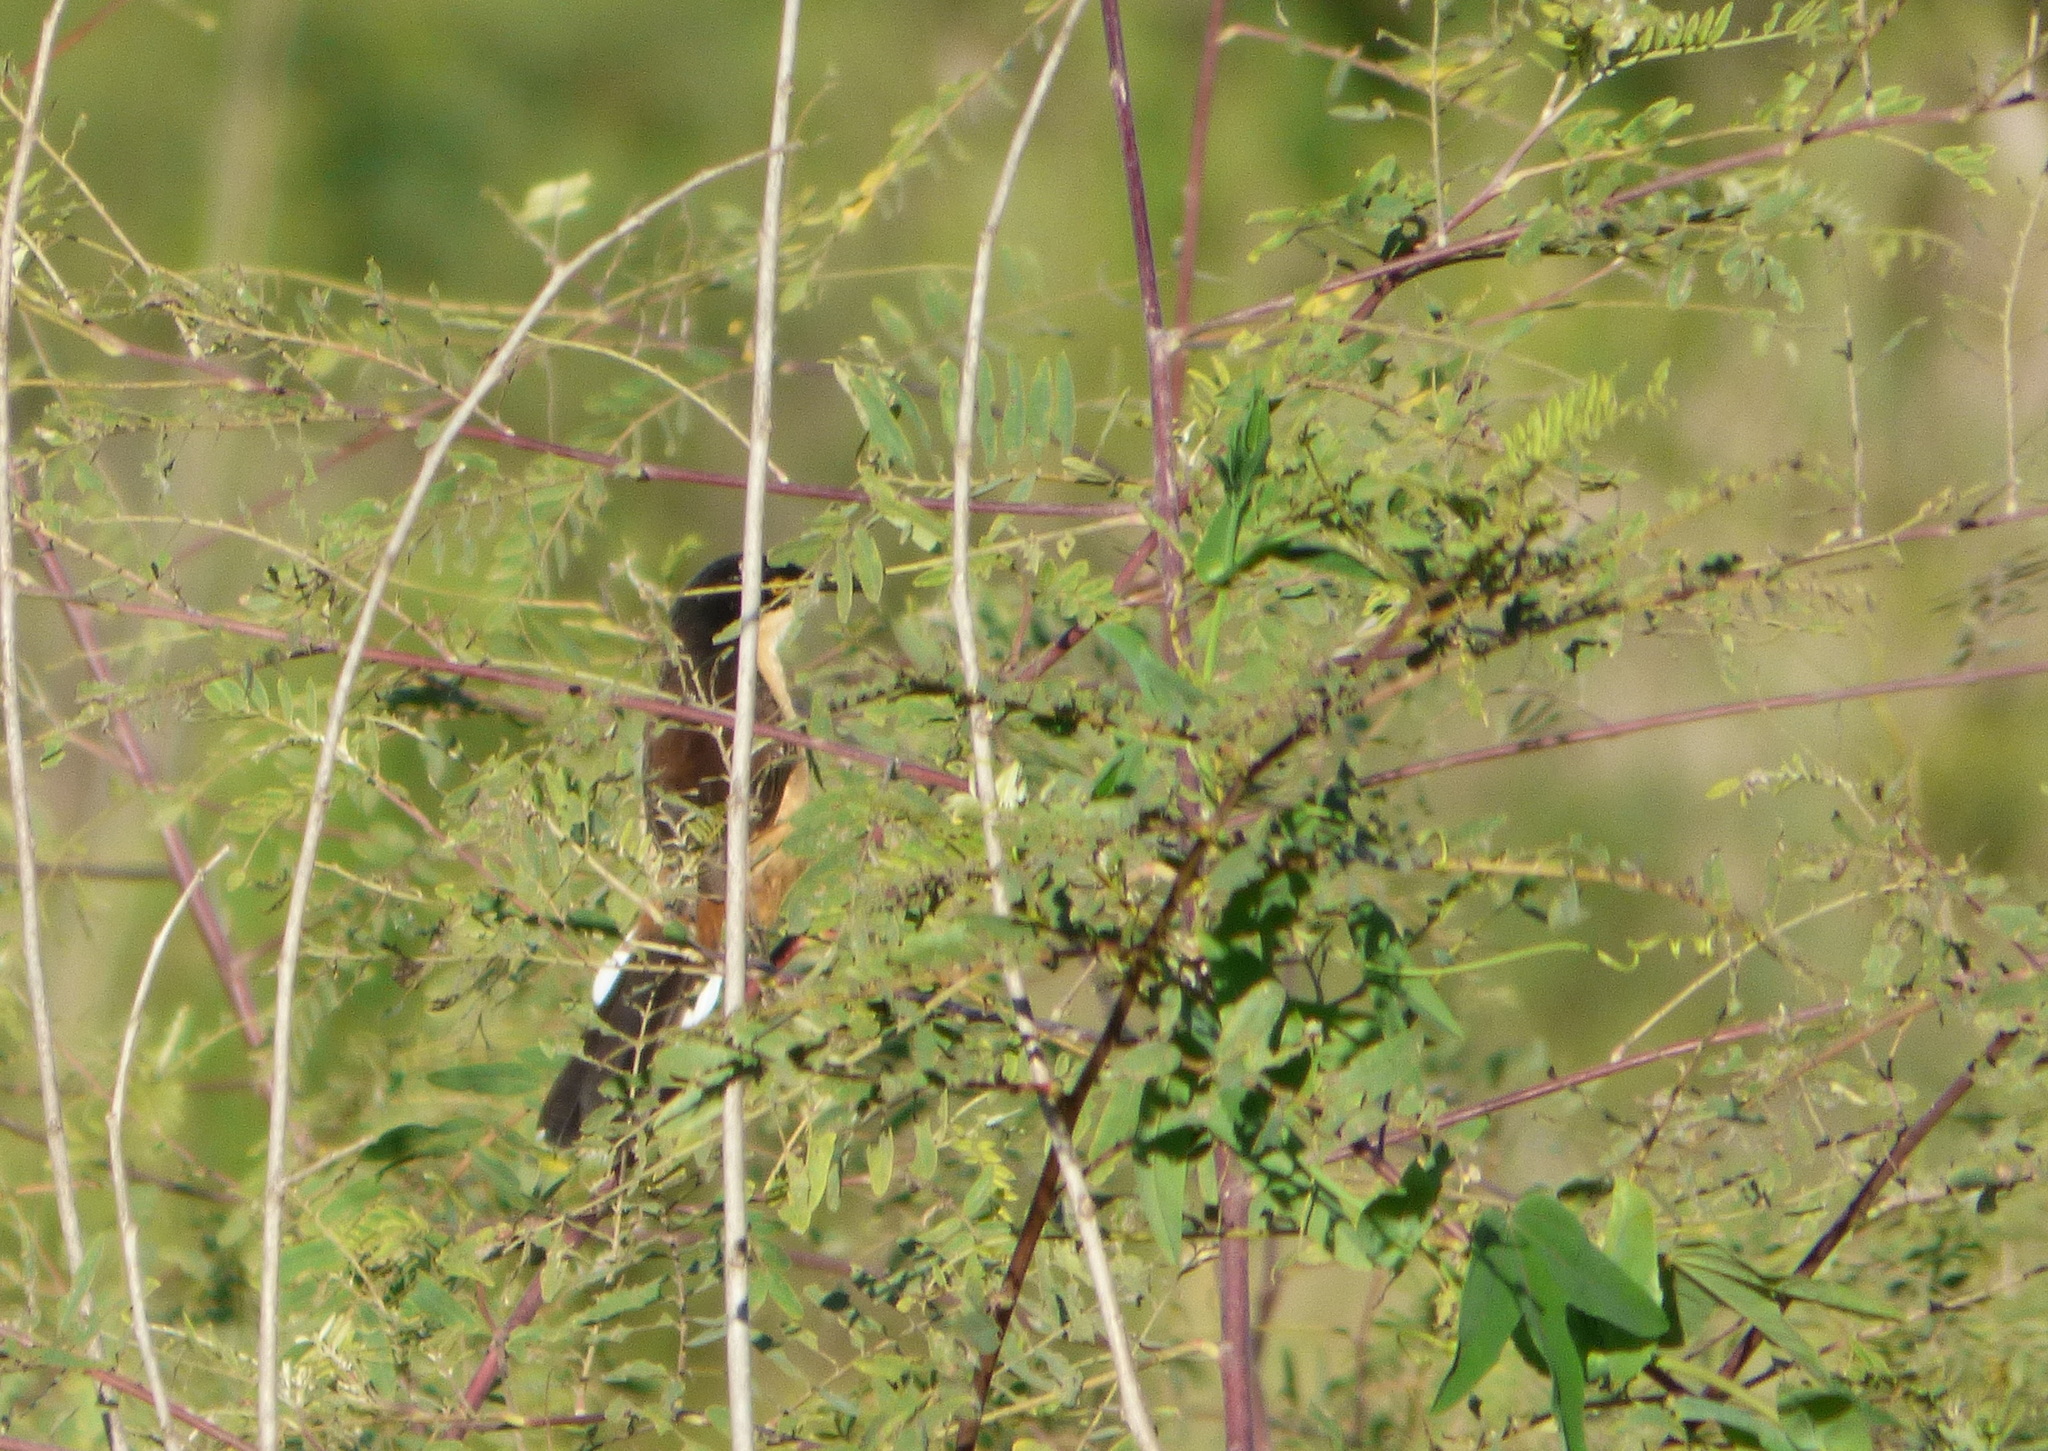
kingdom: Animalia
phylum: Chordata
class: Aves
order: Passeriformes
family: Donacobiidae
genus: Donacobius
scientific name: Donacobius atricapilla
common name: Black-capped donacobius
